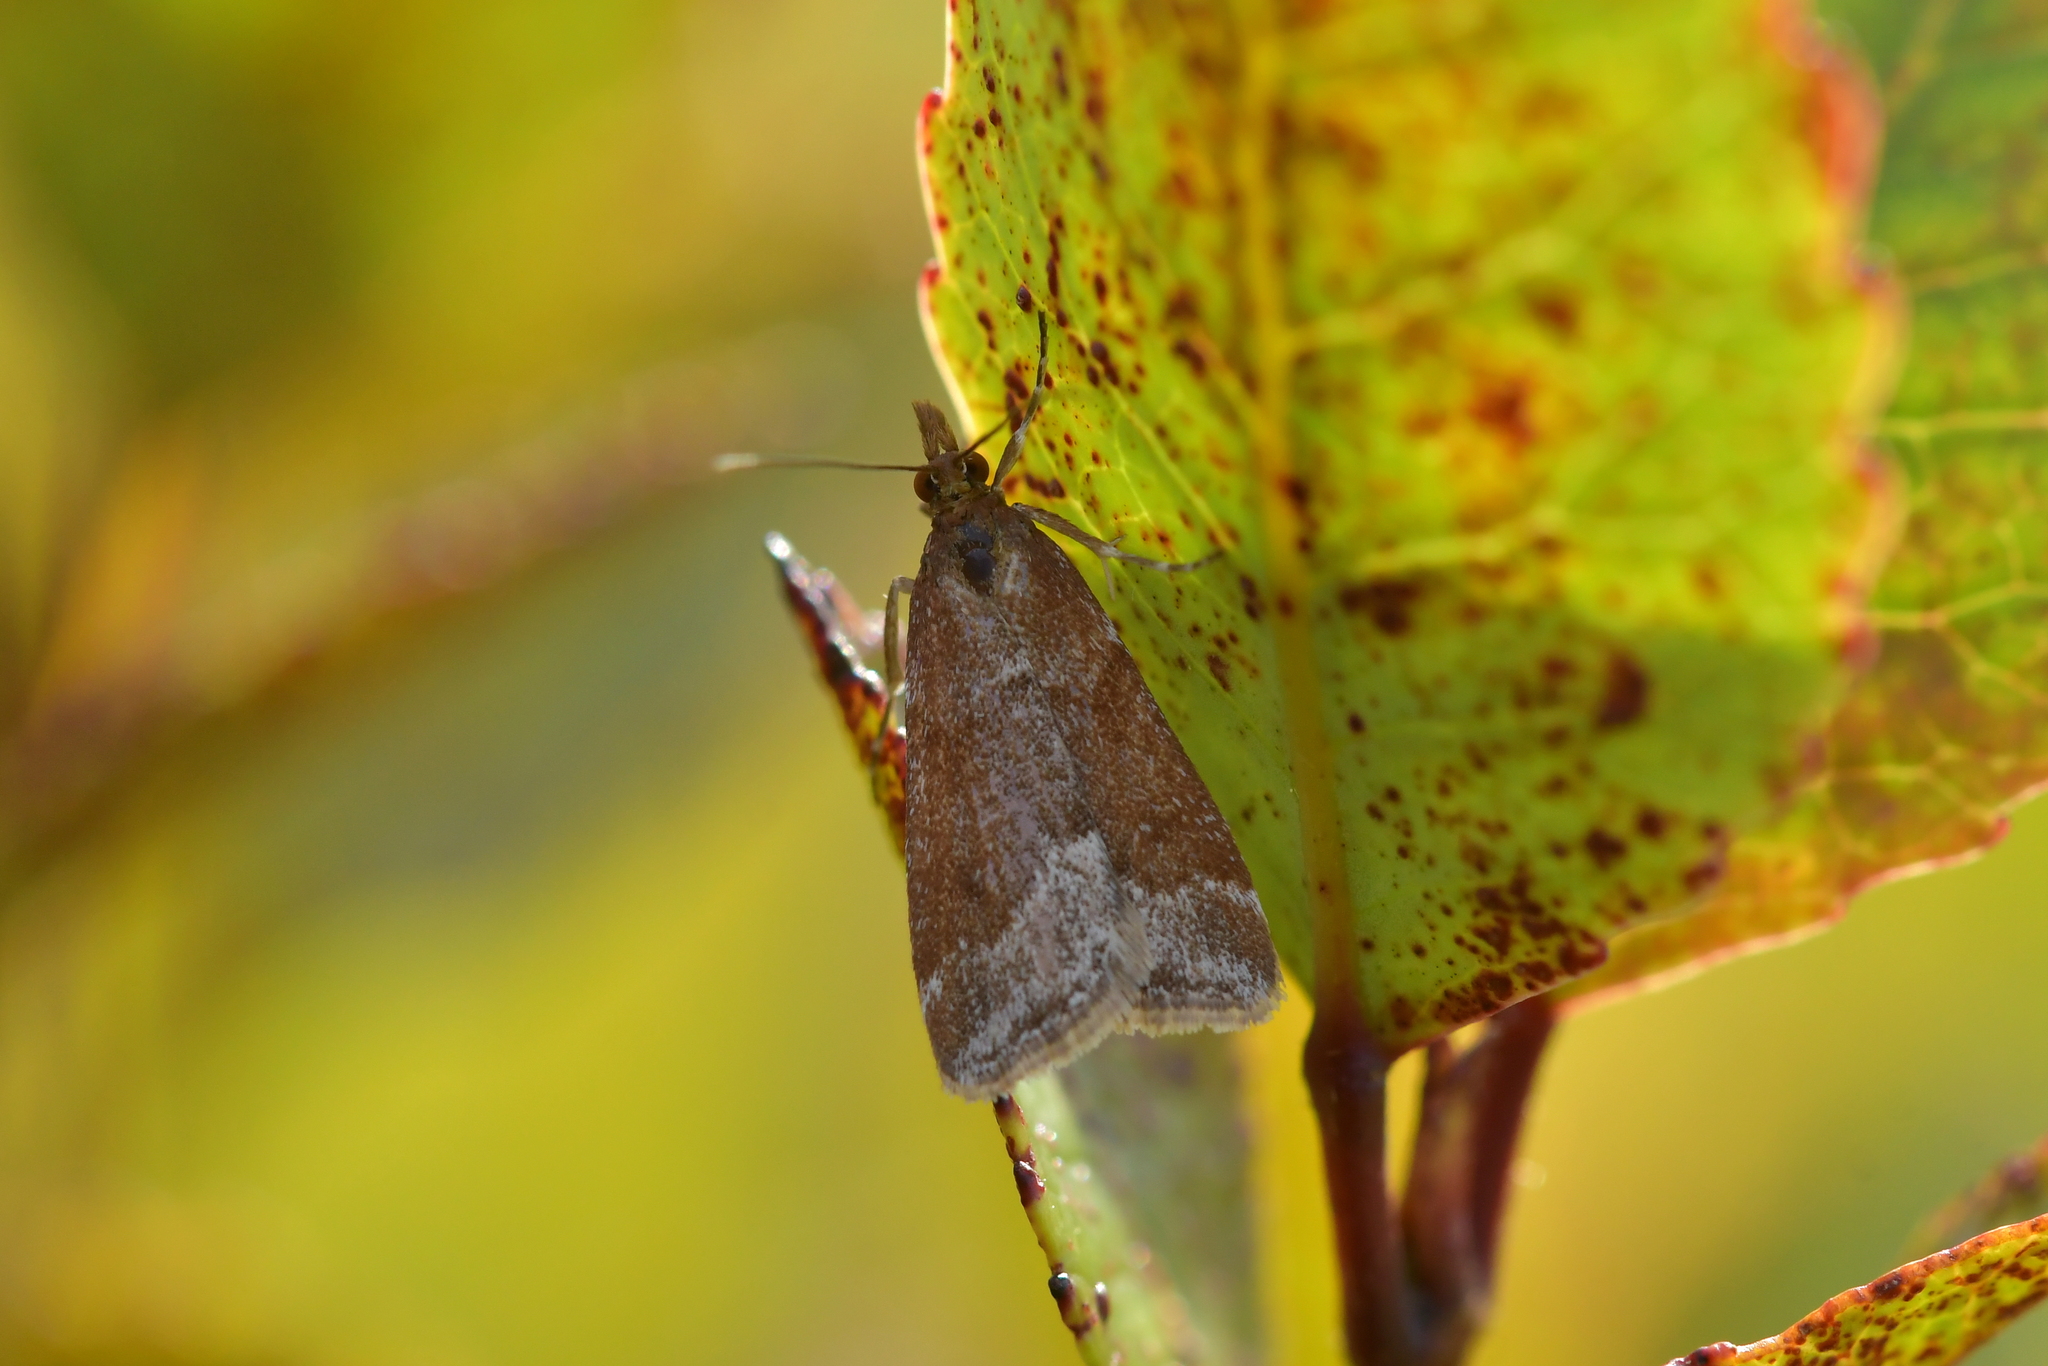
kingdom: Animalia
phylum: Arthropoda
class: Insecta
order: Lepidoptera
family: Crambidae
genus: Eudonia
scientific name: Eudonia feredayi
